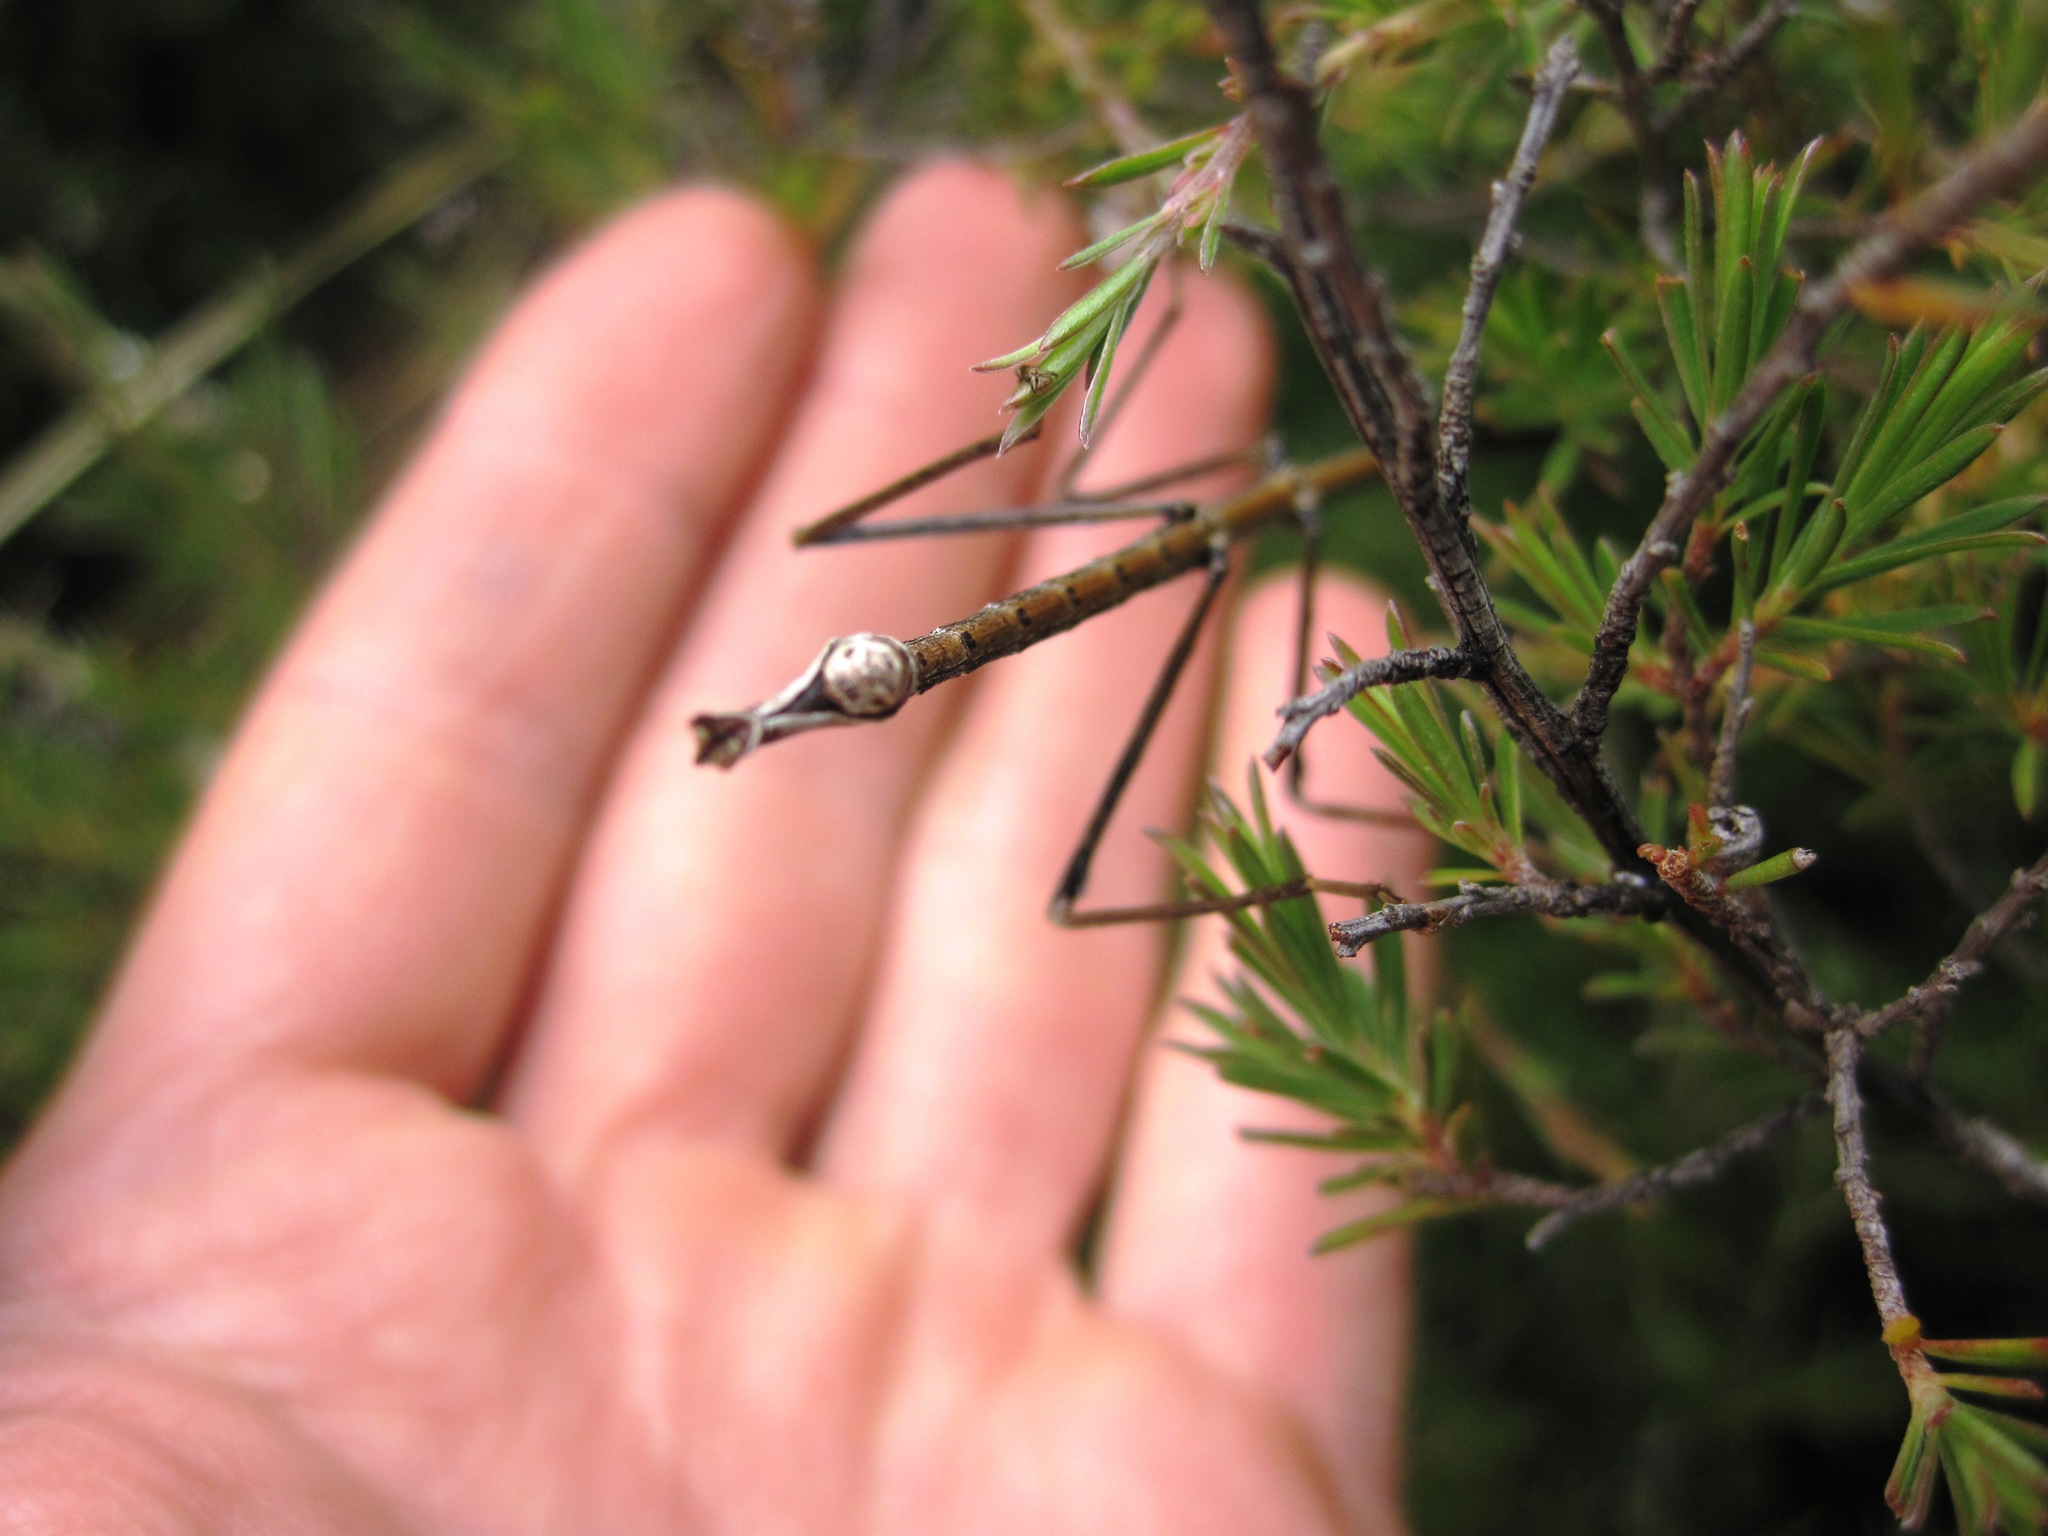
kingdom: Animalia
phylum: Arthropoda
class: Insecta
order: Phasmida
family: Phasmatidae
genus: Clitarchus
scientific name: Clitarchus hookeri
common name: Smooth stick insect
